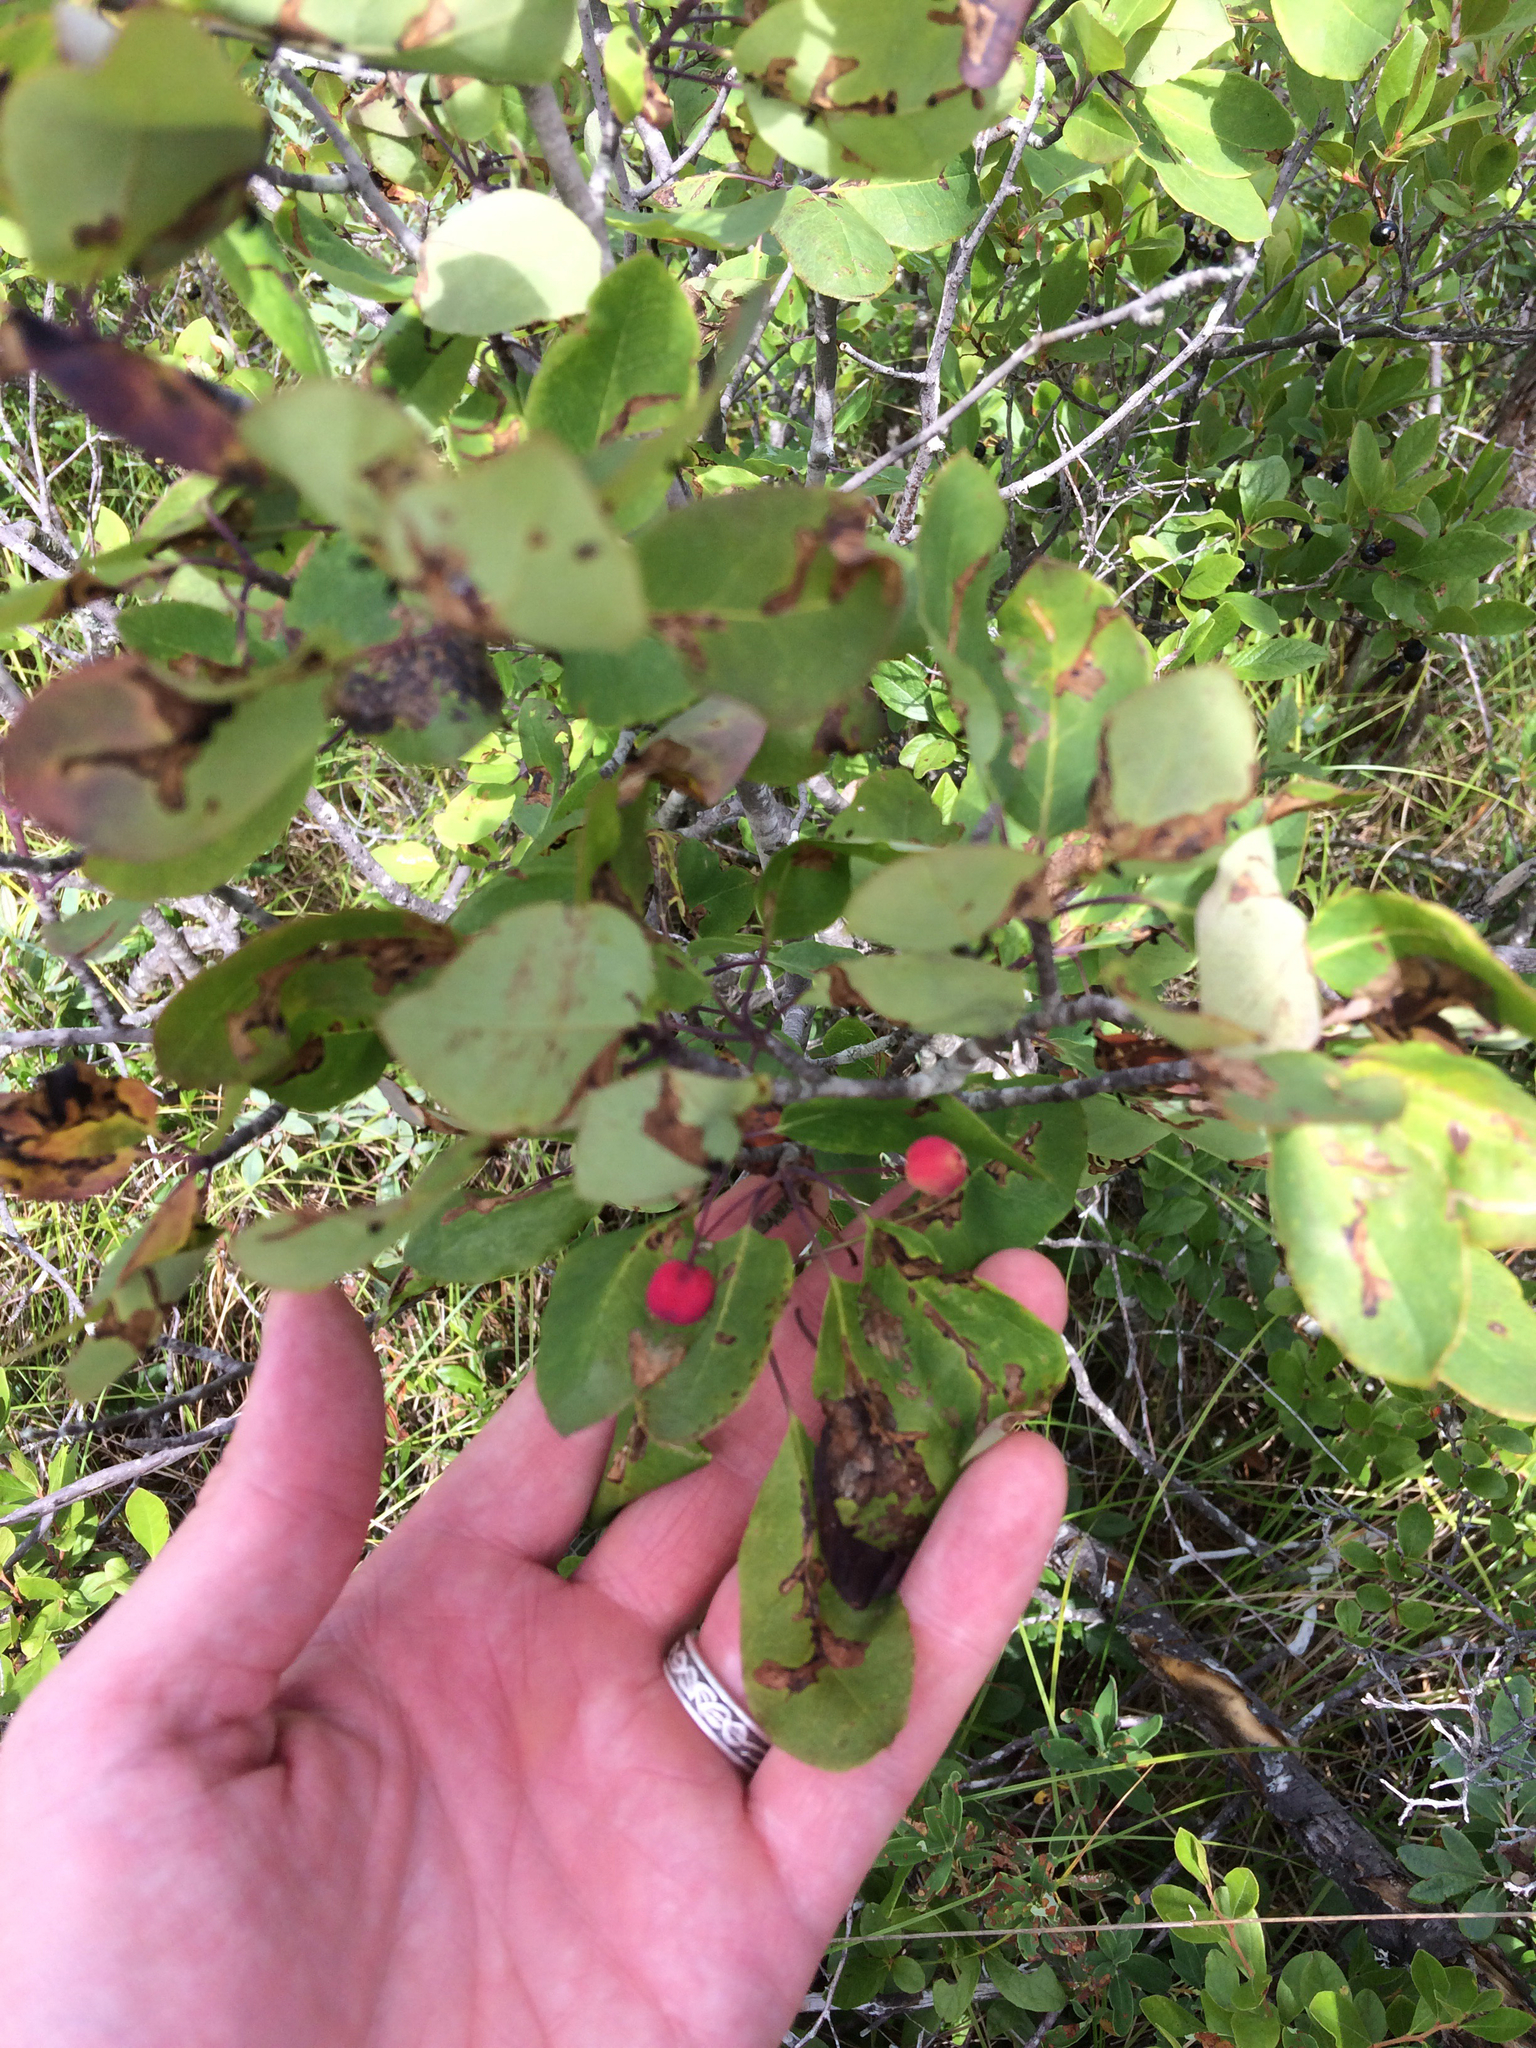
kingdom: Plantae
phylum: Tracheophyta
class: Magnoliopsida
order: Aquifoliales
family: Aquifoliaceae
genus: Ilex
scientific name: Ilex mucronata
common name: Catberry
